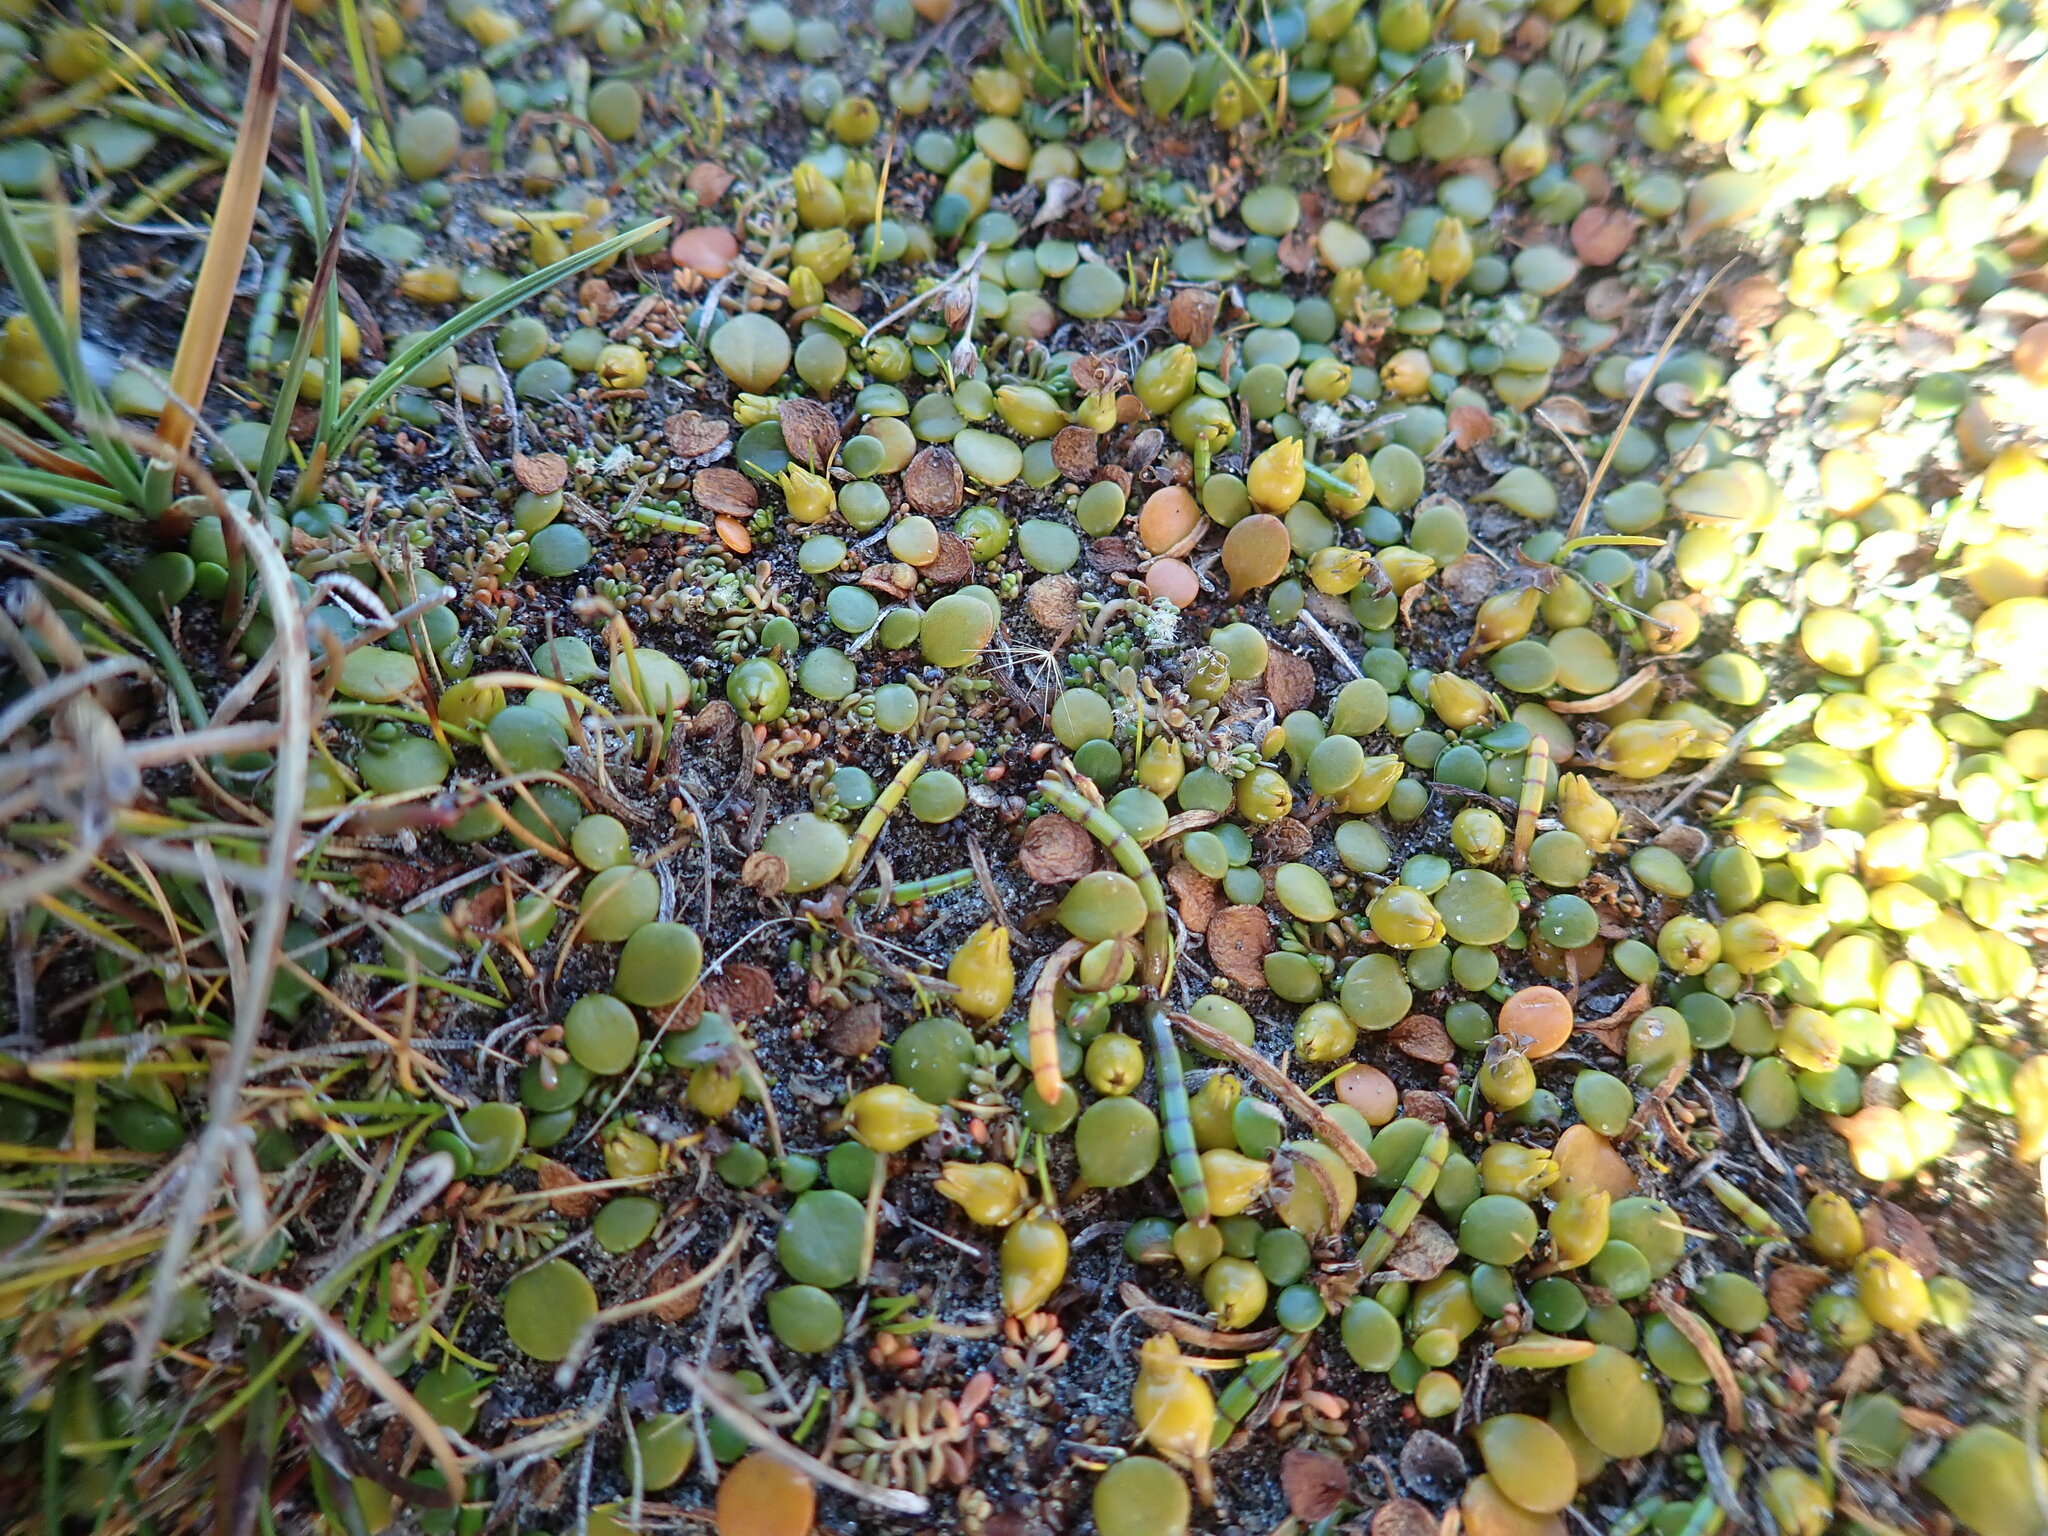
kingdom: Plantae
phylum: Tracheophyta
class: Magnoliopsida
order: Saxifragales
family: Haloragaceae
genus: Myriophyllum
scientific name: Myriophyllum votschii
